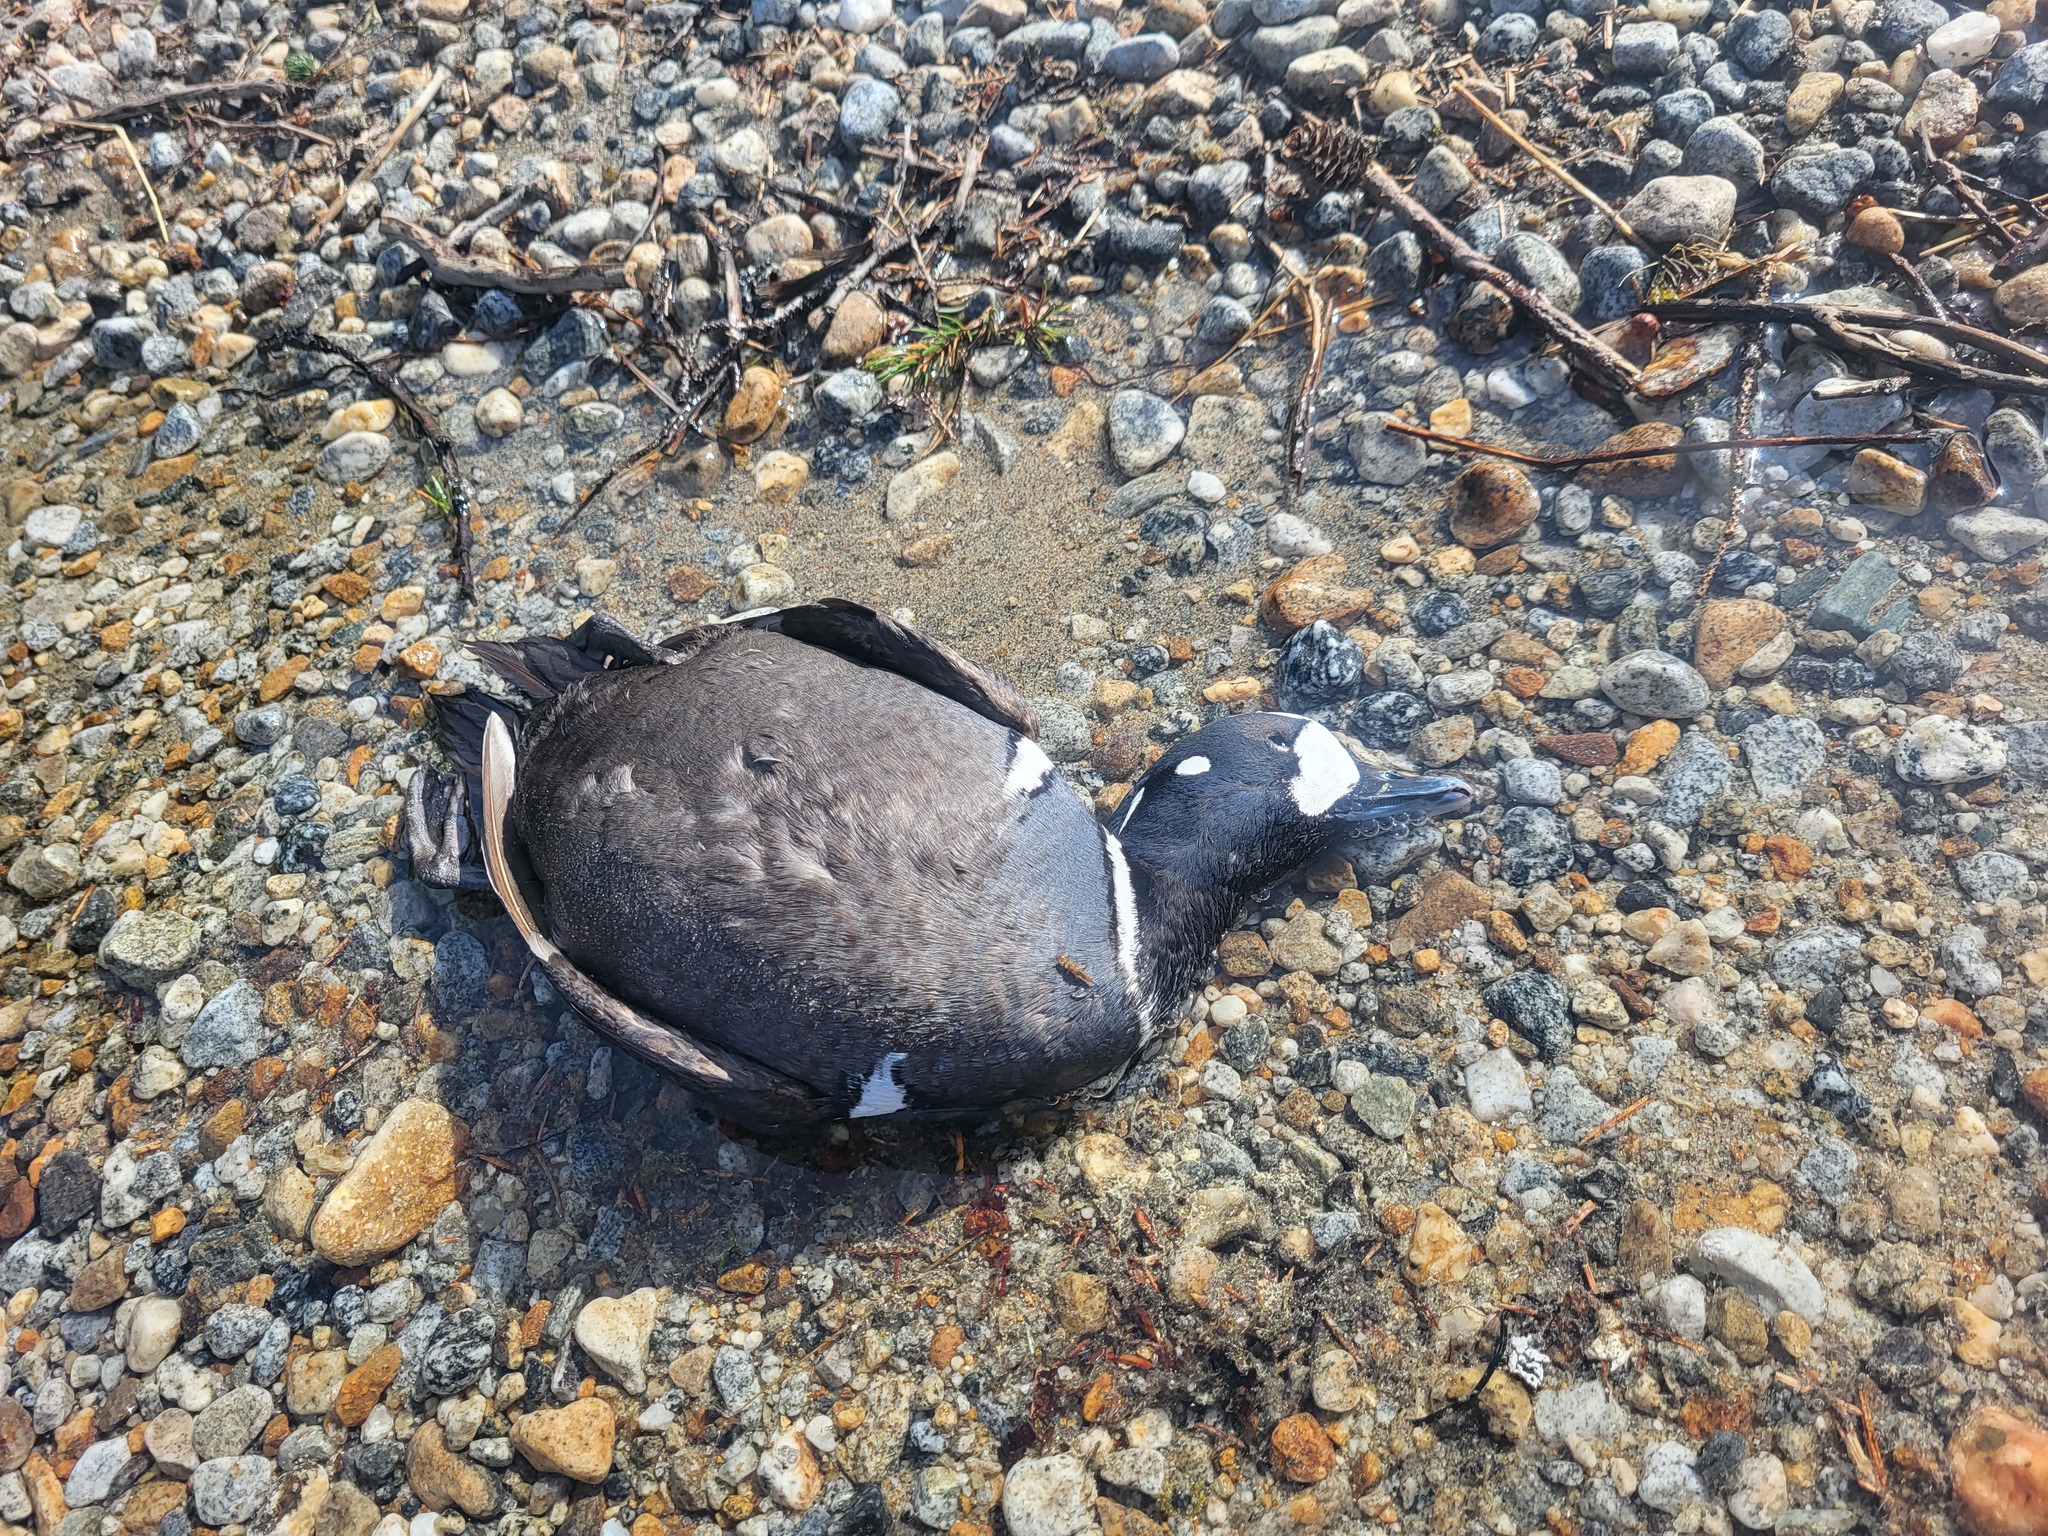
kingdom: Animalia
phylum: Chordata
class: Aves
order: Anseriformes
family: Anatidae
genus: Histrionicus
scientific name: Histrionicus histrionicus
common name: Harlequin duck
